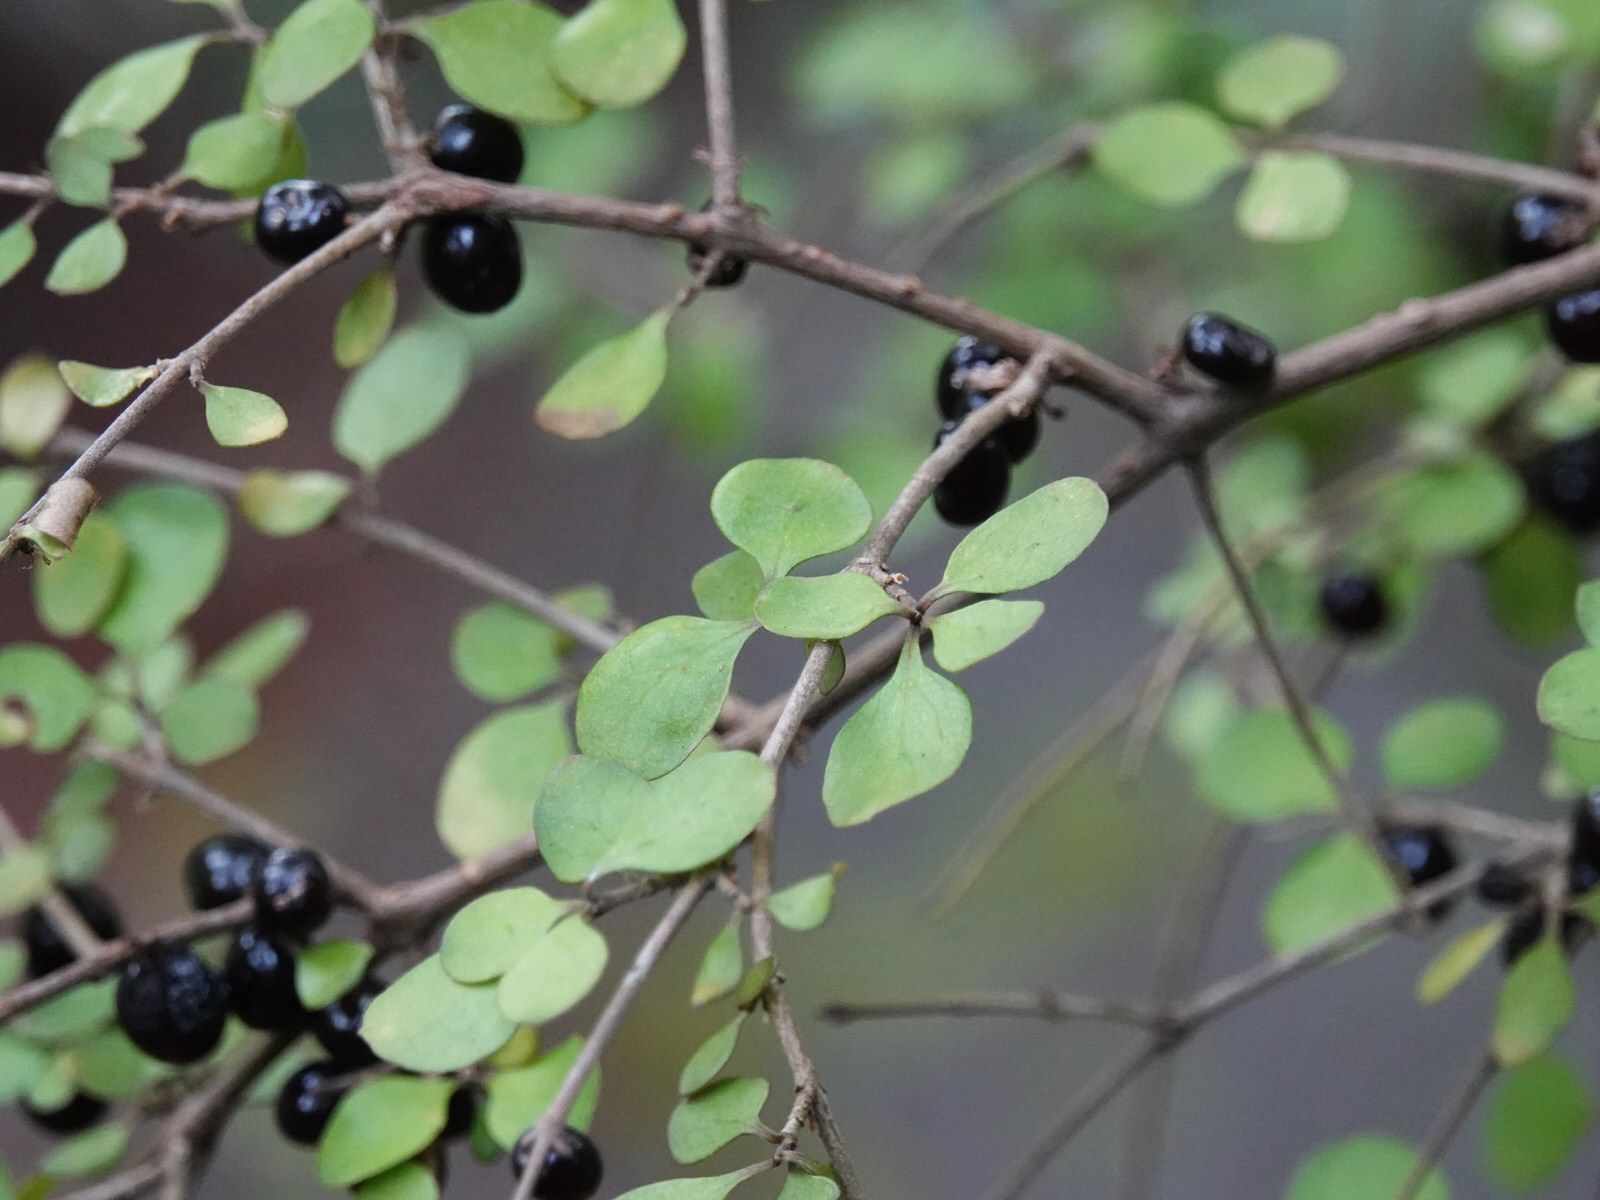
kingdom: Plantae
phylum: Tracheophyta
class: Magnoliopsida
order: Gentianales
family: Rubiaceae
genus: Coprosma
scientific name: Coprosma rhamnoides
